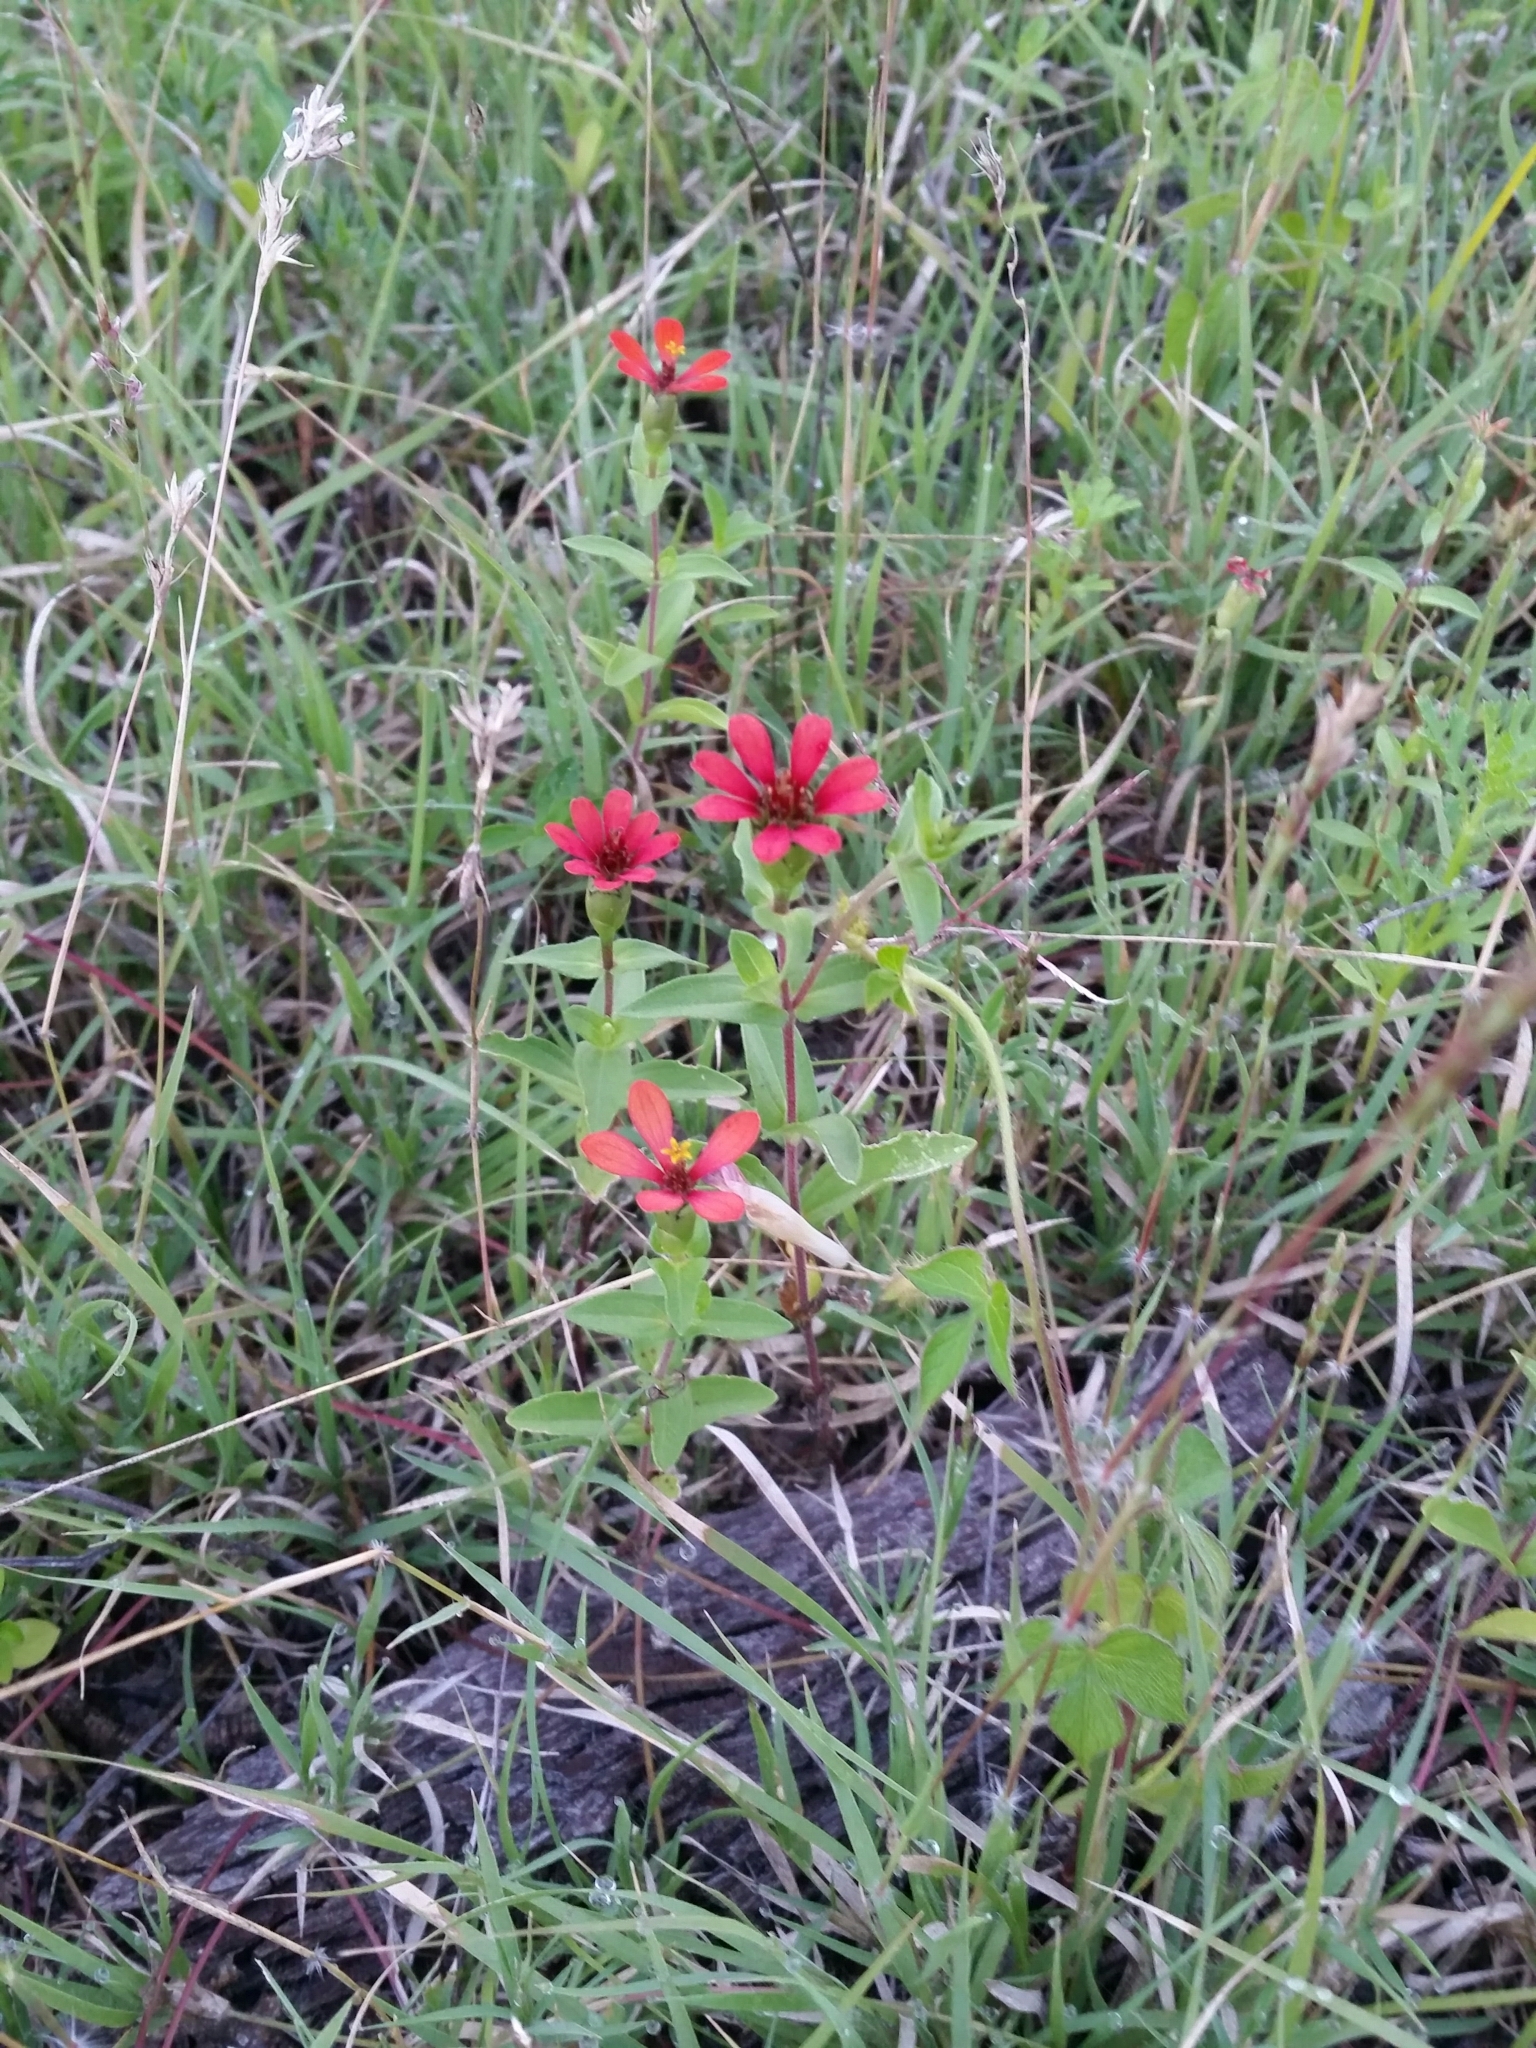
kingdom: Plantae
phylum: Tracheophyta
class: Magnoliopsida
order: Asterales
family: Asteraceae
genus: Zinnia
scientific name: Zinnia peruviana
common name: Peruvian zinnia
